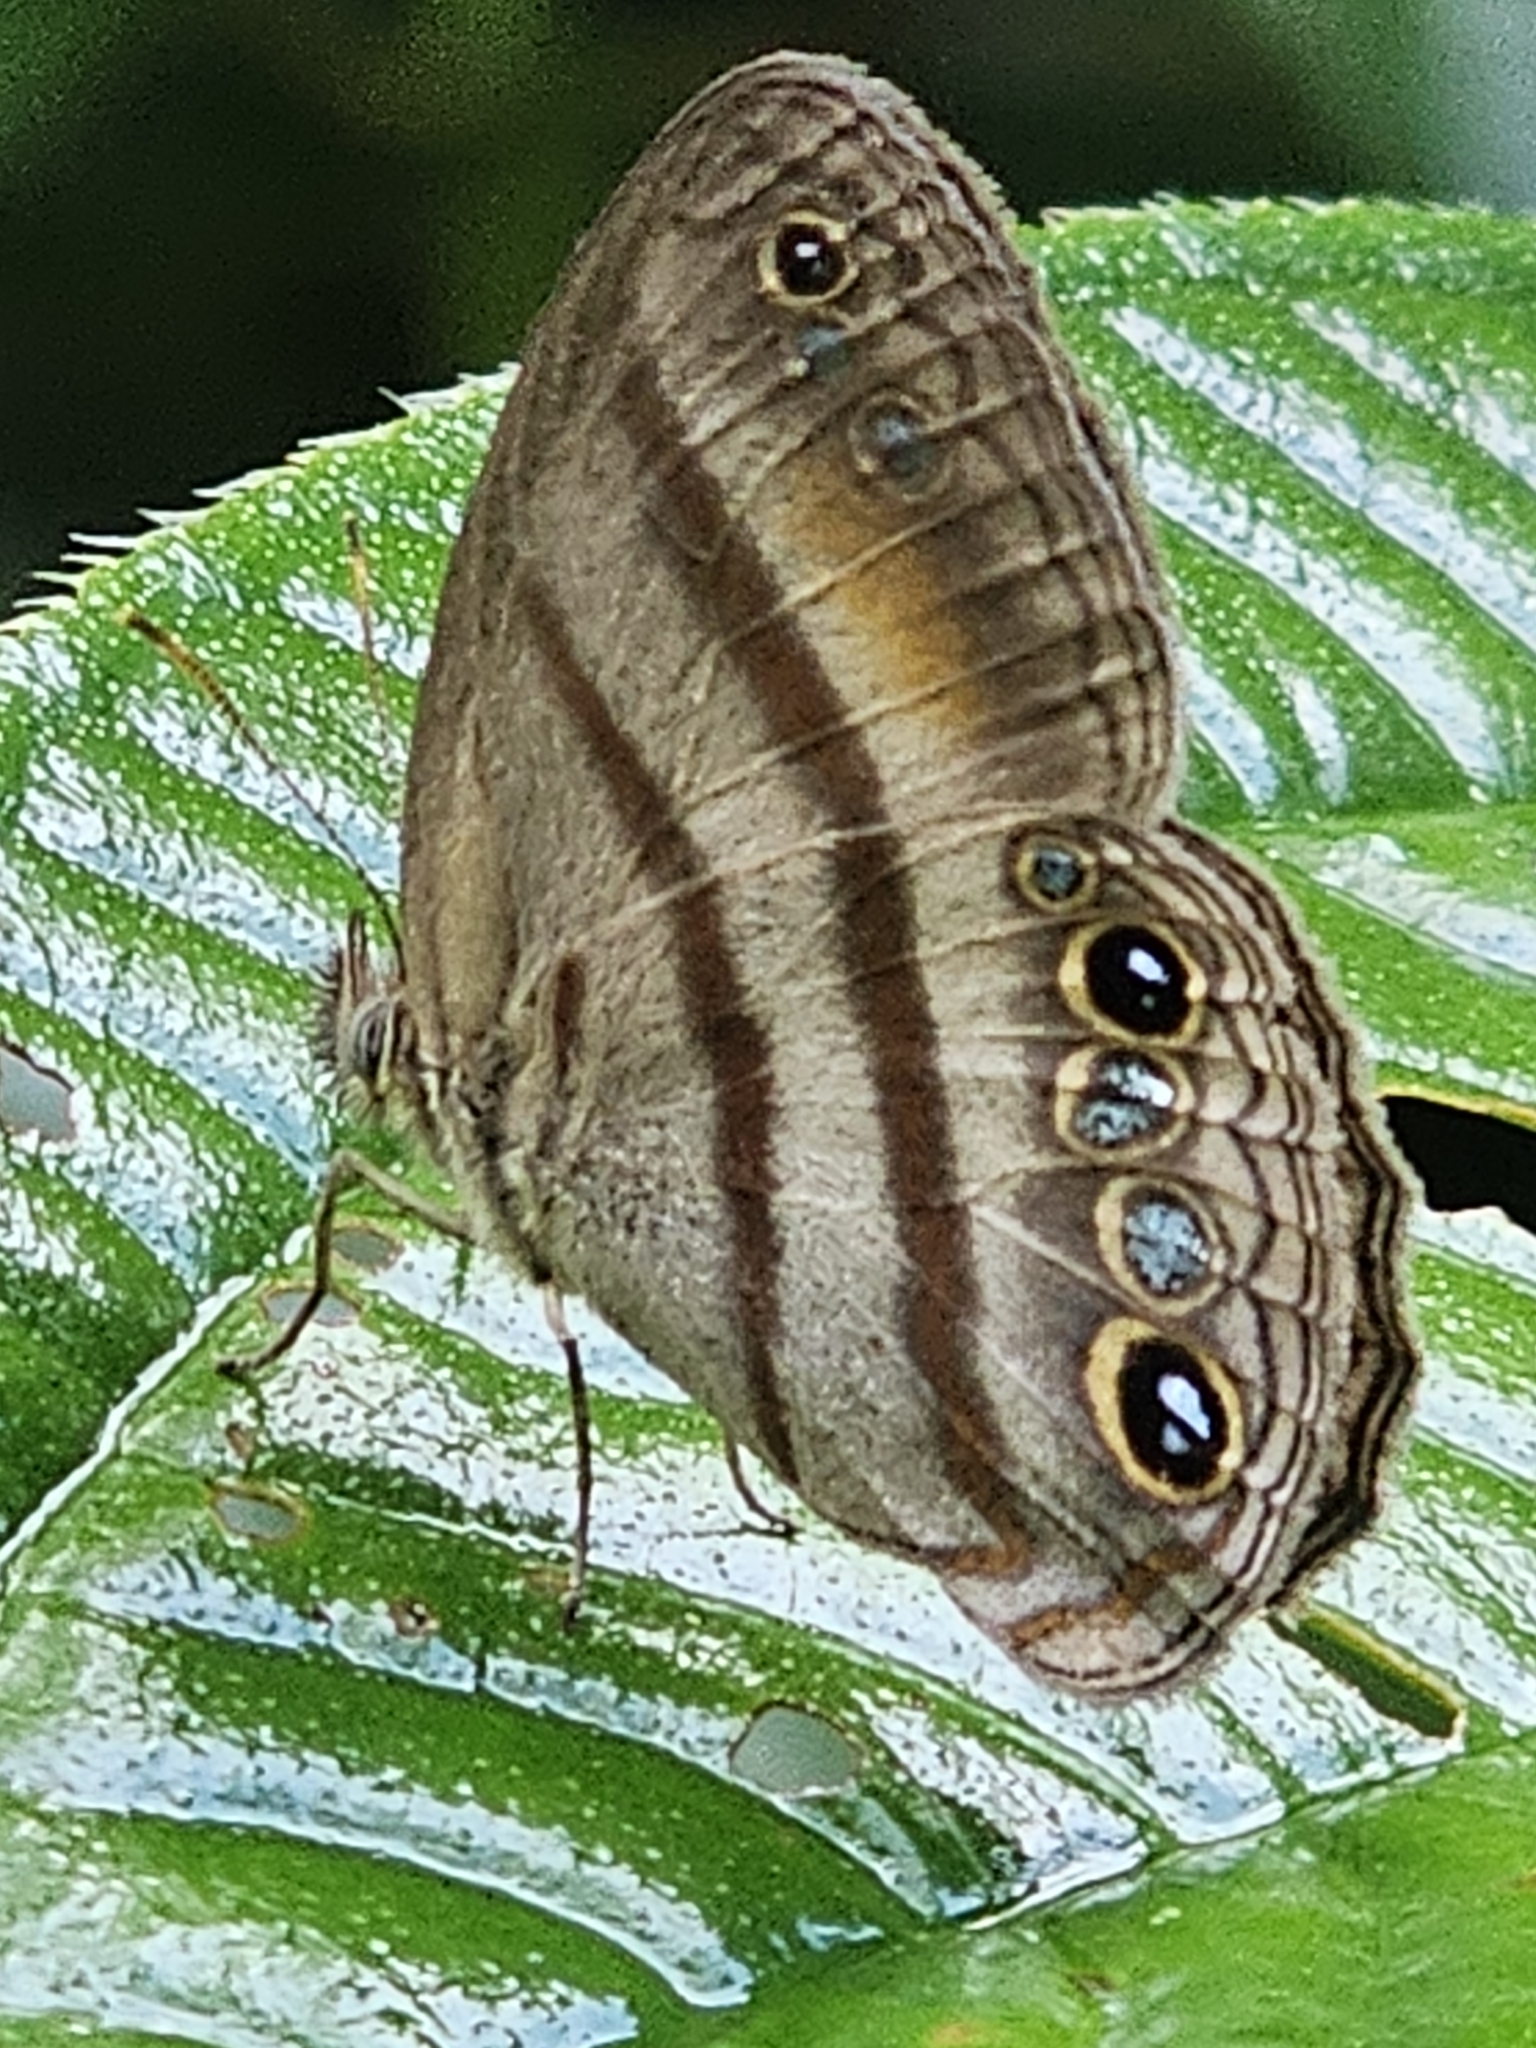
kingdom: Animalia
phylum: Arthropoda
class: Insecta
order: Lepidoptera
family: Nymphalidae
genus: Modica
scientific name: Modica
